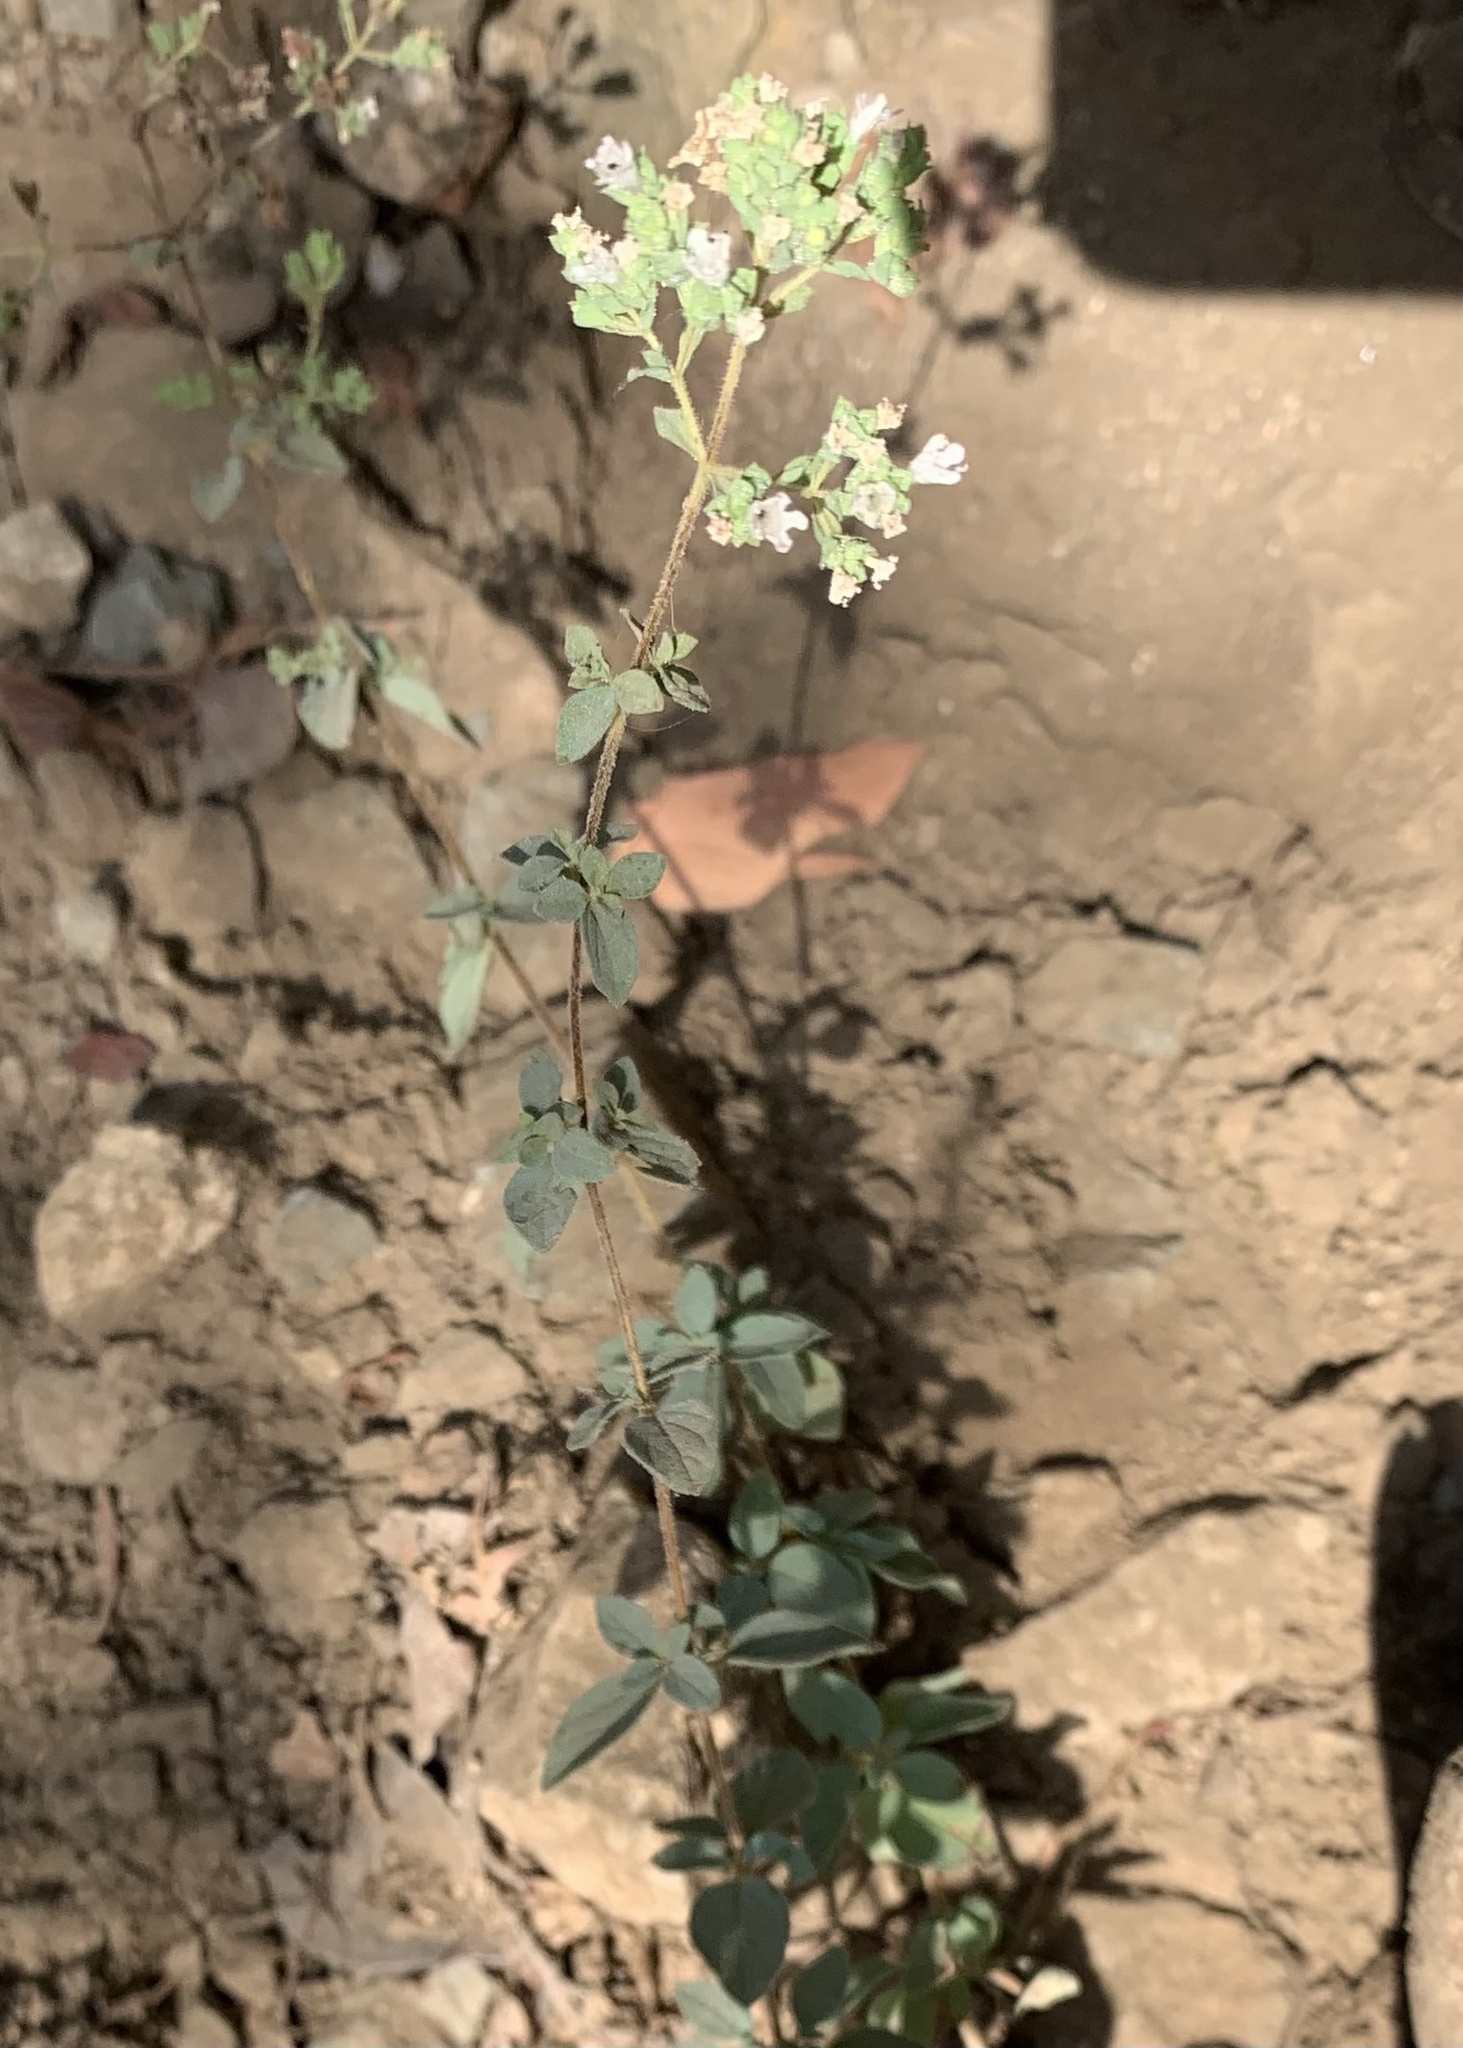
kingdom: Plantae
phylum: Tracheophyta
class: Magnoliopsida
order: Lamiales
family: Lamiaceae
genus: Origanum
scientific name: Origanum vulgare
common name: Wild marjoram
